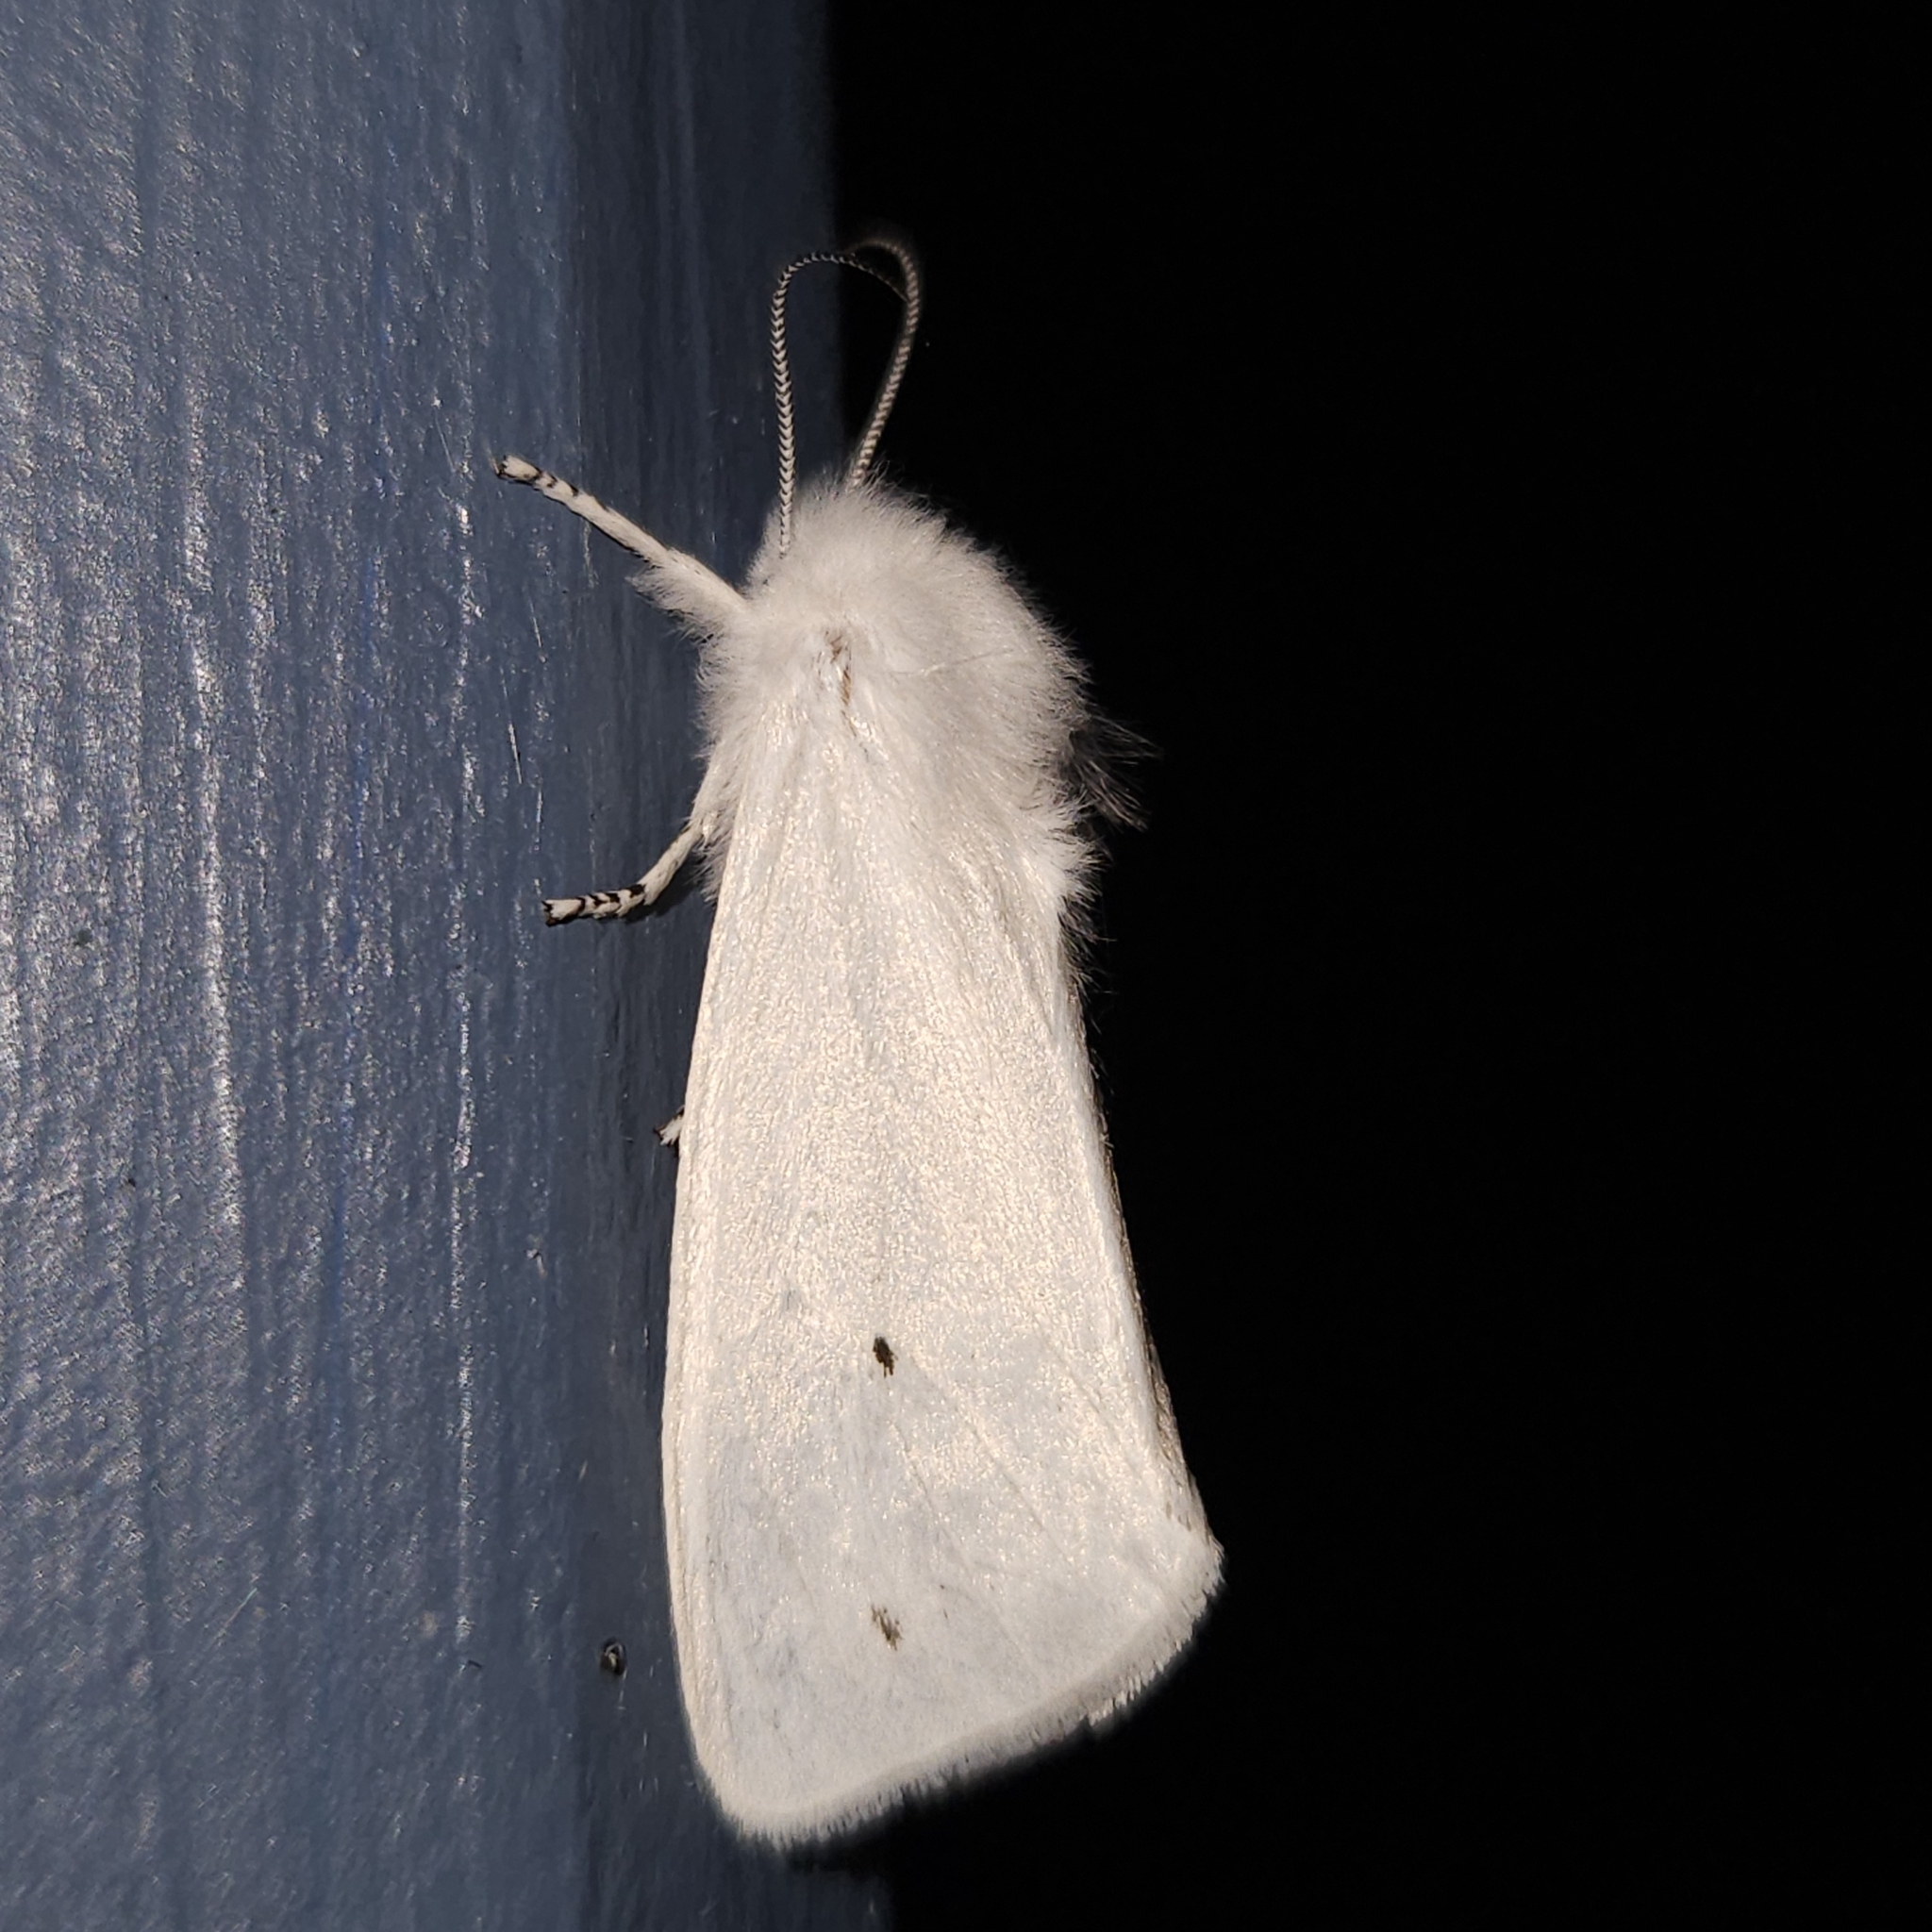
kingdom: Animalia
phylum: Arthropoda
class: Insecta
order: Lepidoptera
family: Erebidae
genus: Spilosoma
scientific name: Spilosoma virginica
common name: Virginia tiger moth
